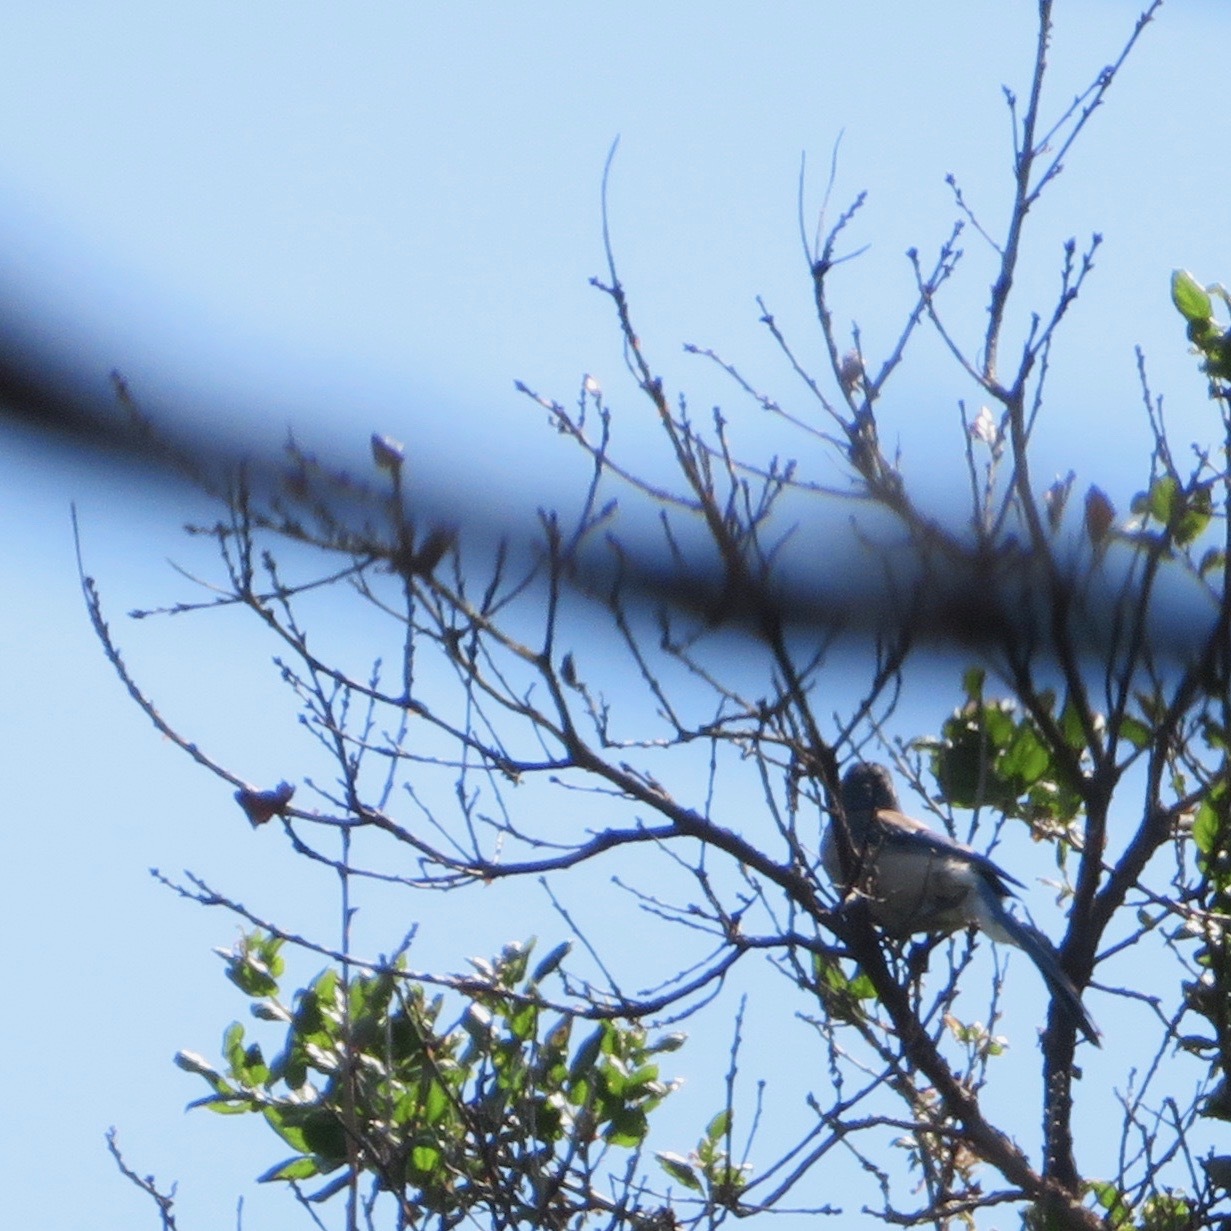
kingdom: Animalia
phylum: Chordata
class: Aves
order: Passeriformes
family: Corvidae
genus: Aphelocoma
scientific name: Aphelocoma californica
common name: California scrub-jay
